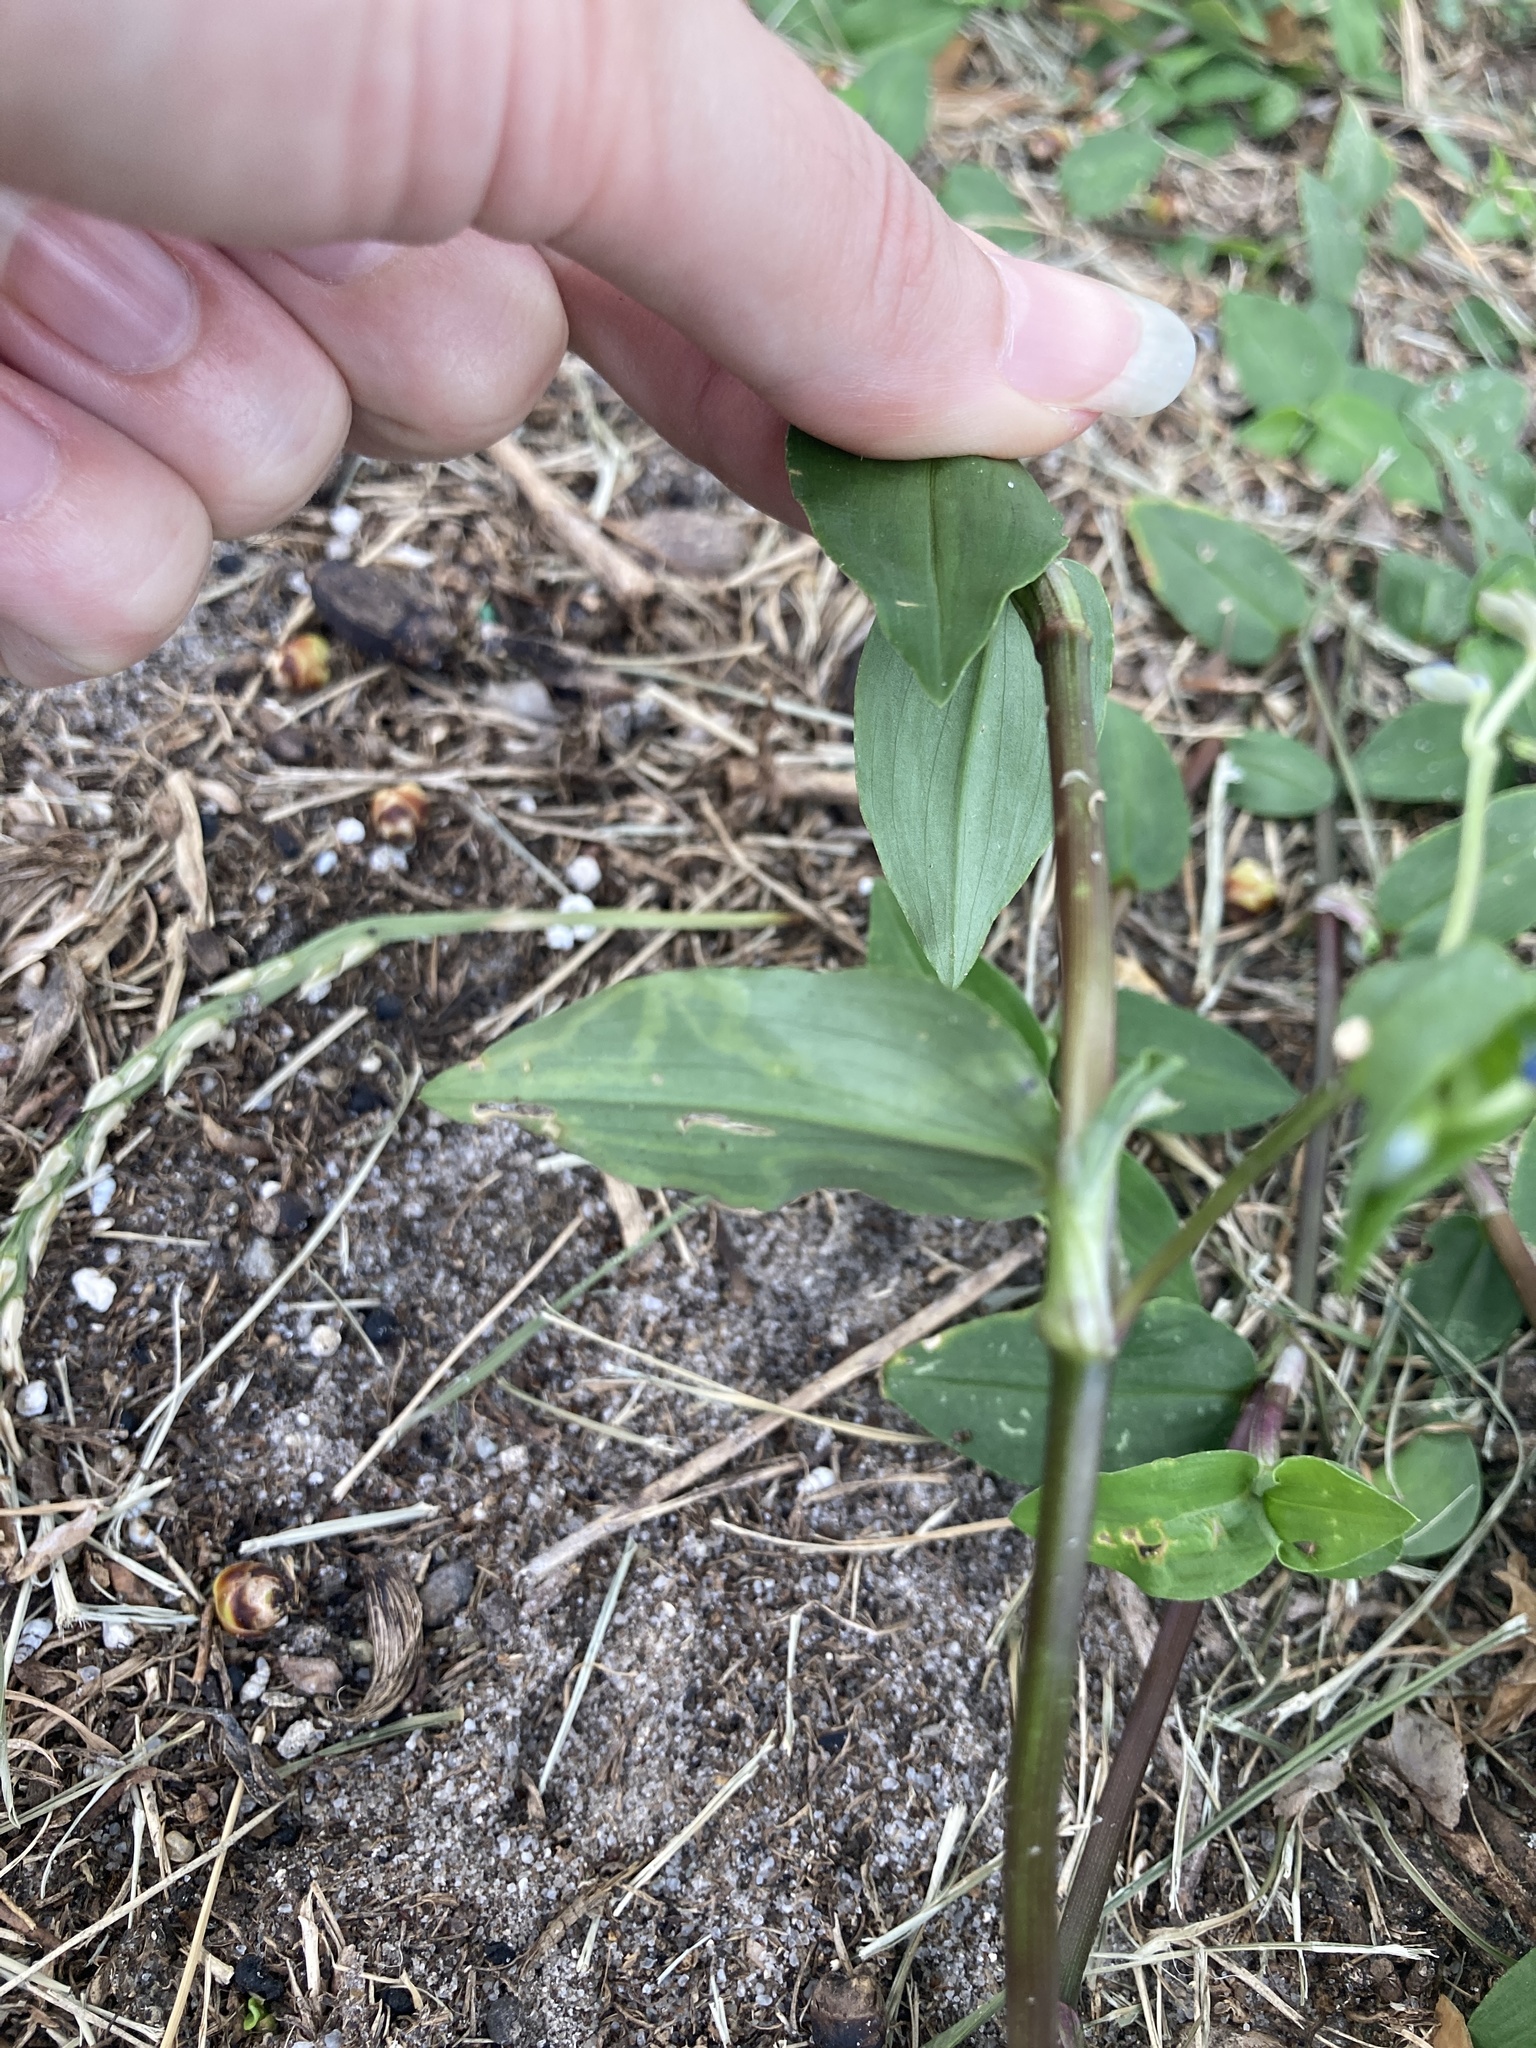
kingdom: Animalia
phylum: Arthropoda
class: Insecta
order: Diptera
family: Agromyzidae
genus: Liriomyza
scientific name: Liriomyza commelinae
